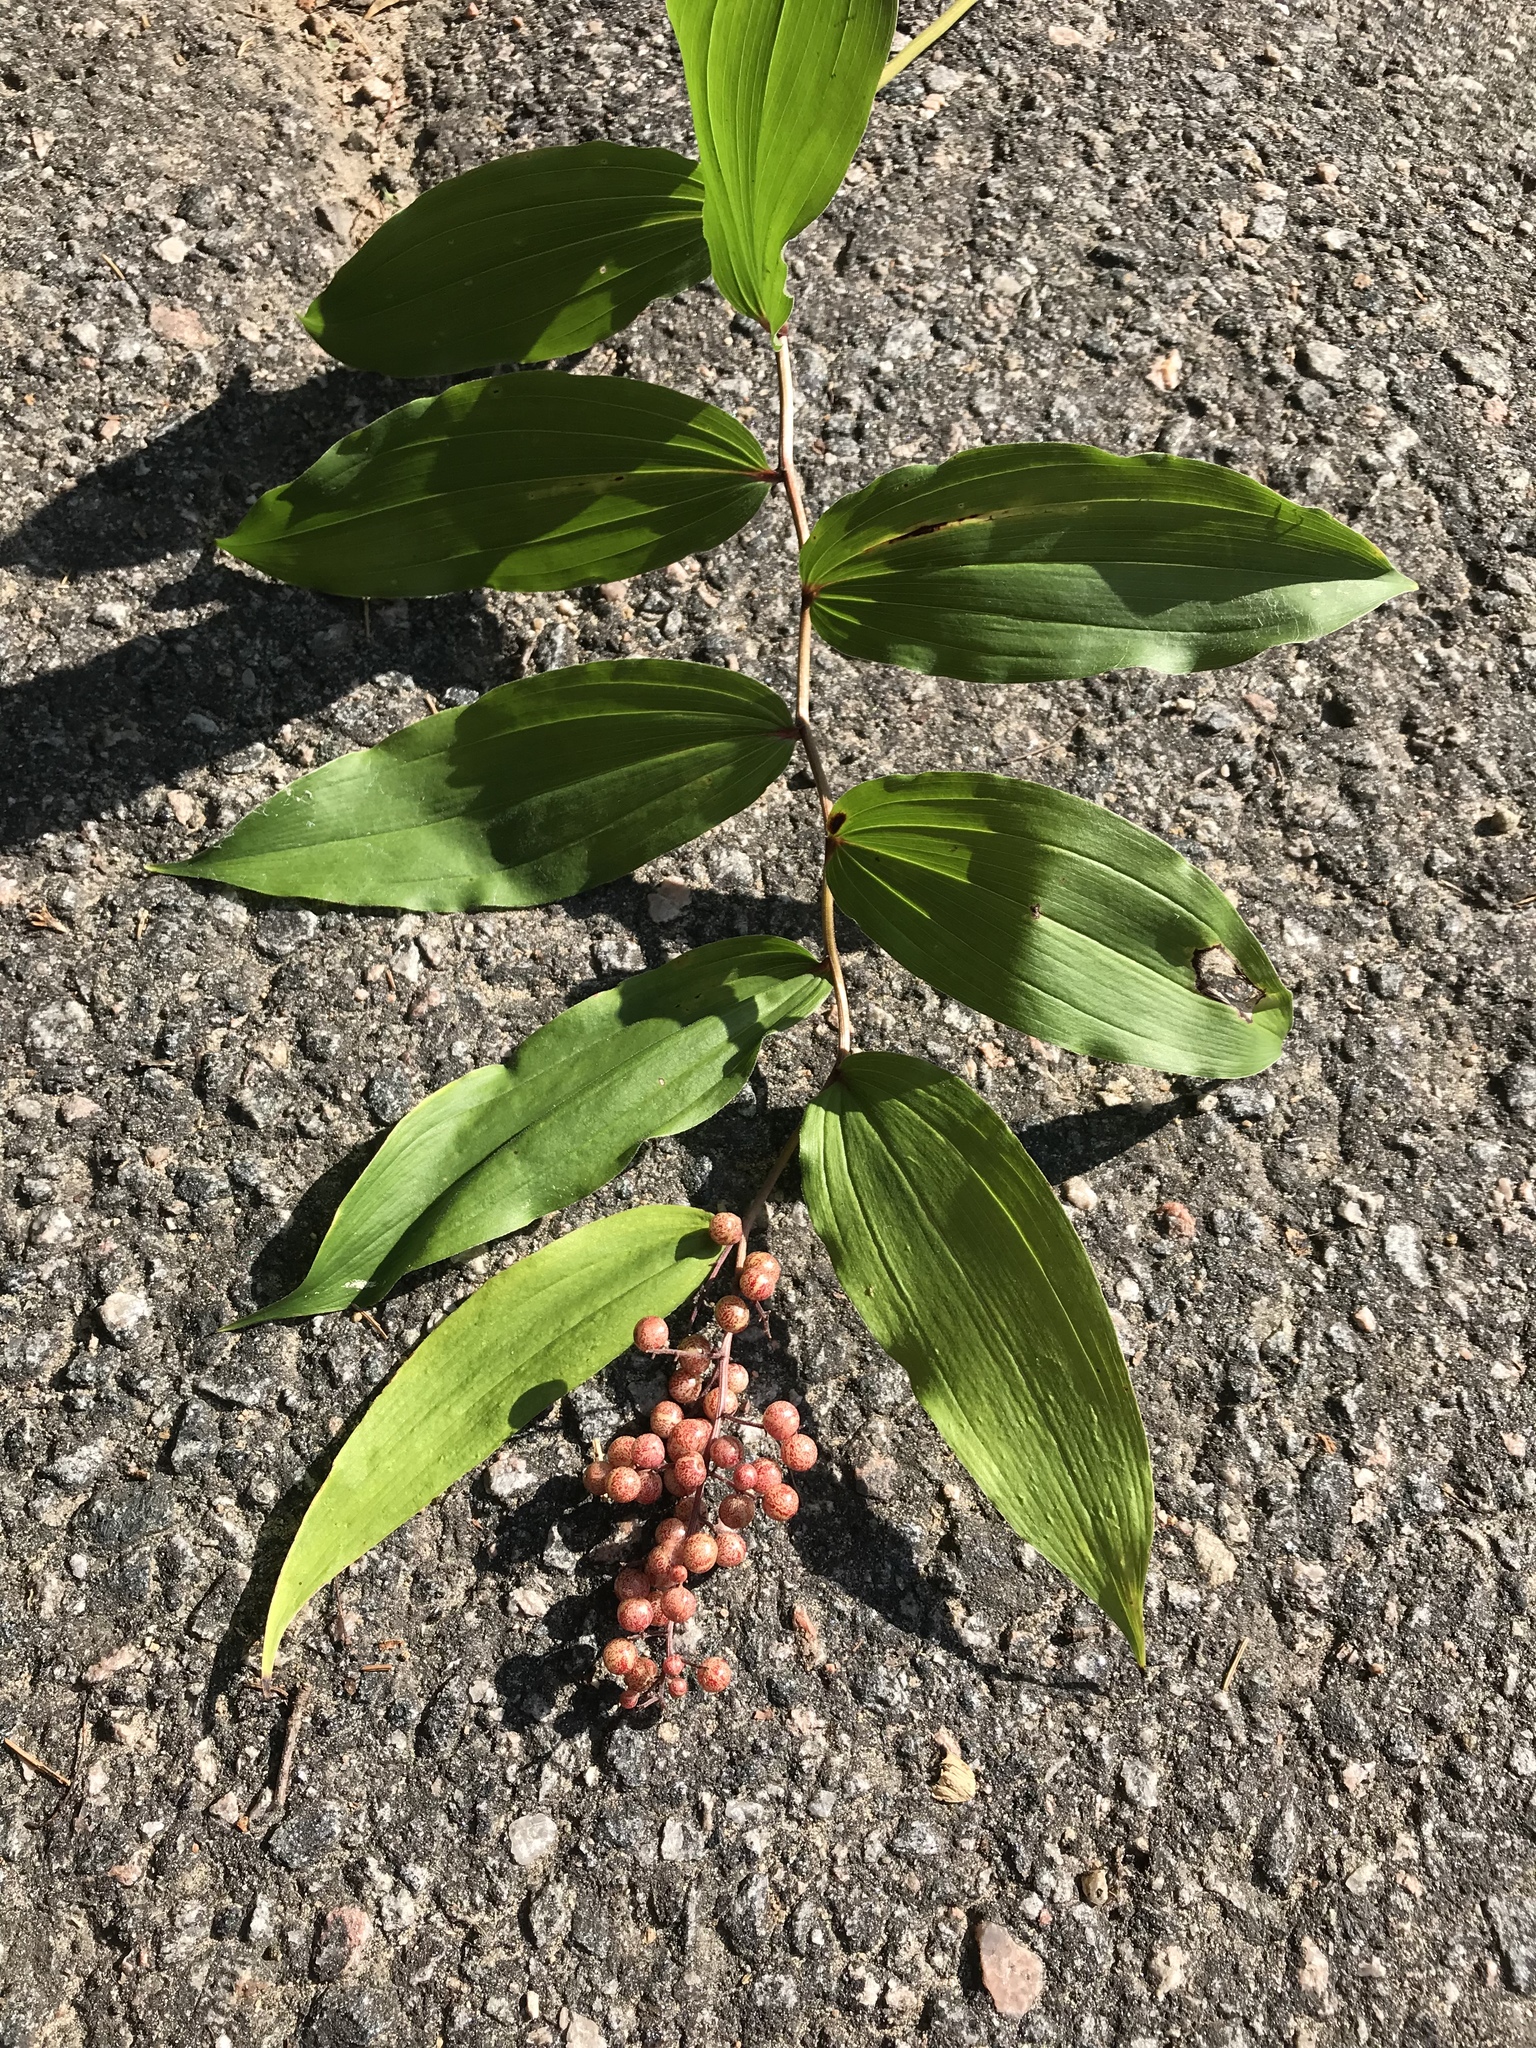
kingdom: Plantae
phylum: Tracheophyta
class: Liliopsida
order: Asparagales
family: Asparagaceae
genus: Maianthemum
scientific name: Maianthemum racemosum
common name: False spikenard
